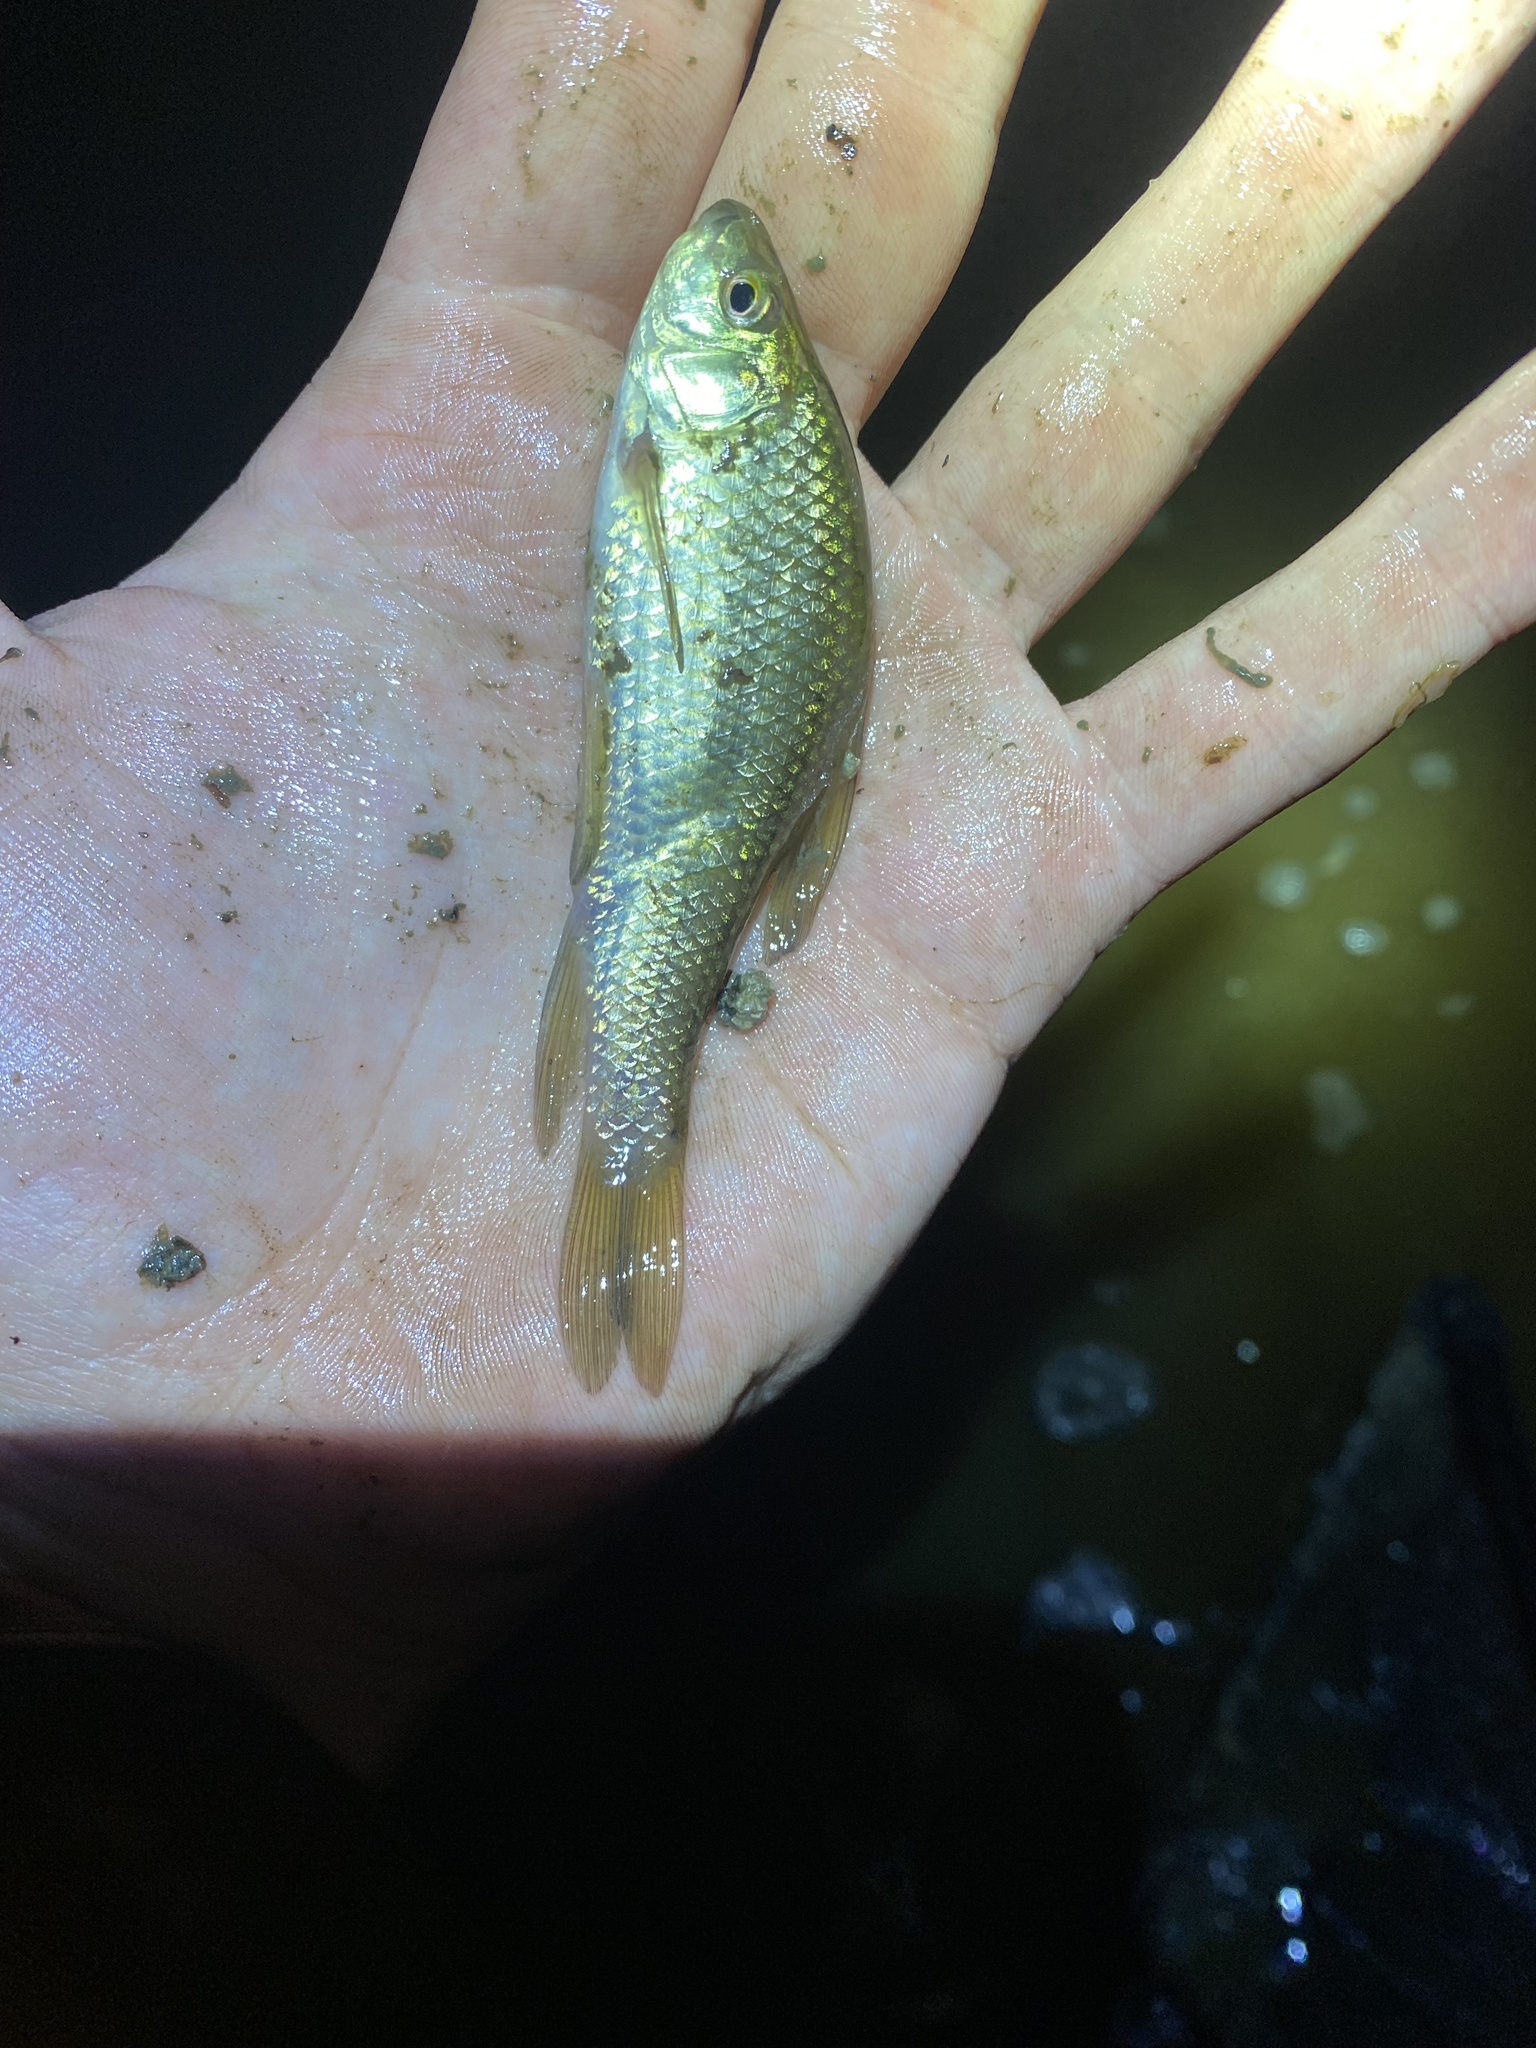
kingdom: Animalia
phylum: Chordata
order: Cypriniformes
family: Catostomidae
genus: Erimyzon
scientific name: Erimyzon oblongus
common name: Eastern creek chubsucker
